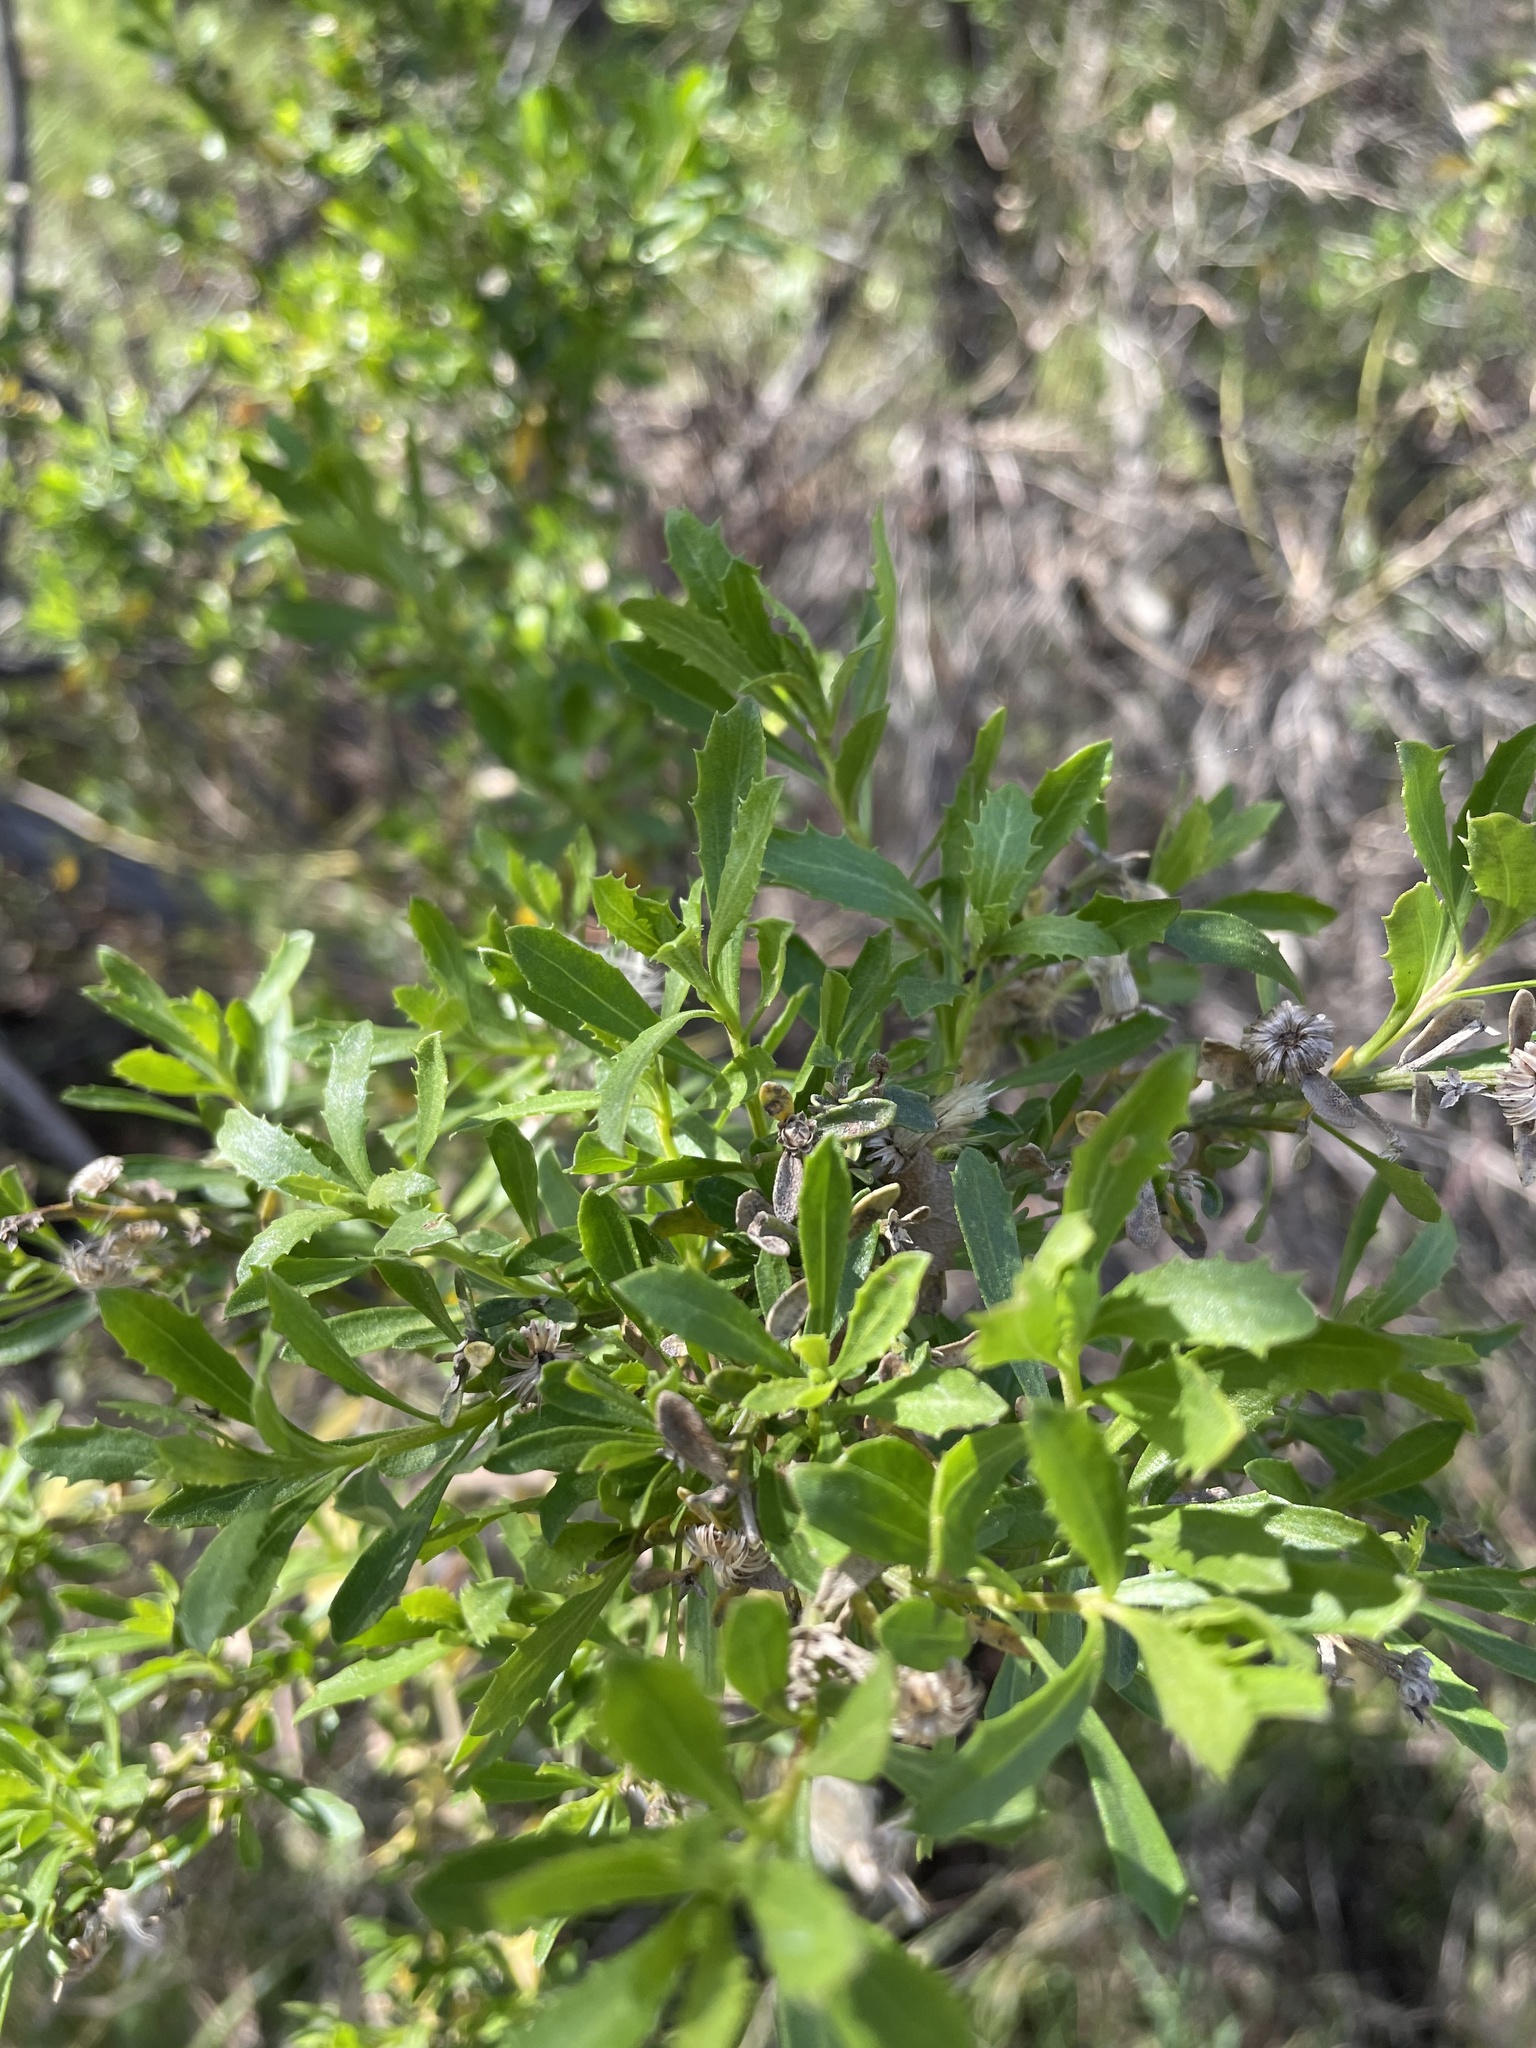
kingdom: Plantae
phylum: Tracheophyta
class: Magnoliopsida
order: Asterales
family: Asteraceae
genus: Baccharis
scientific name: Baccharis pilularis
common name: Coyotebrush
